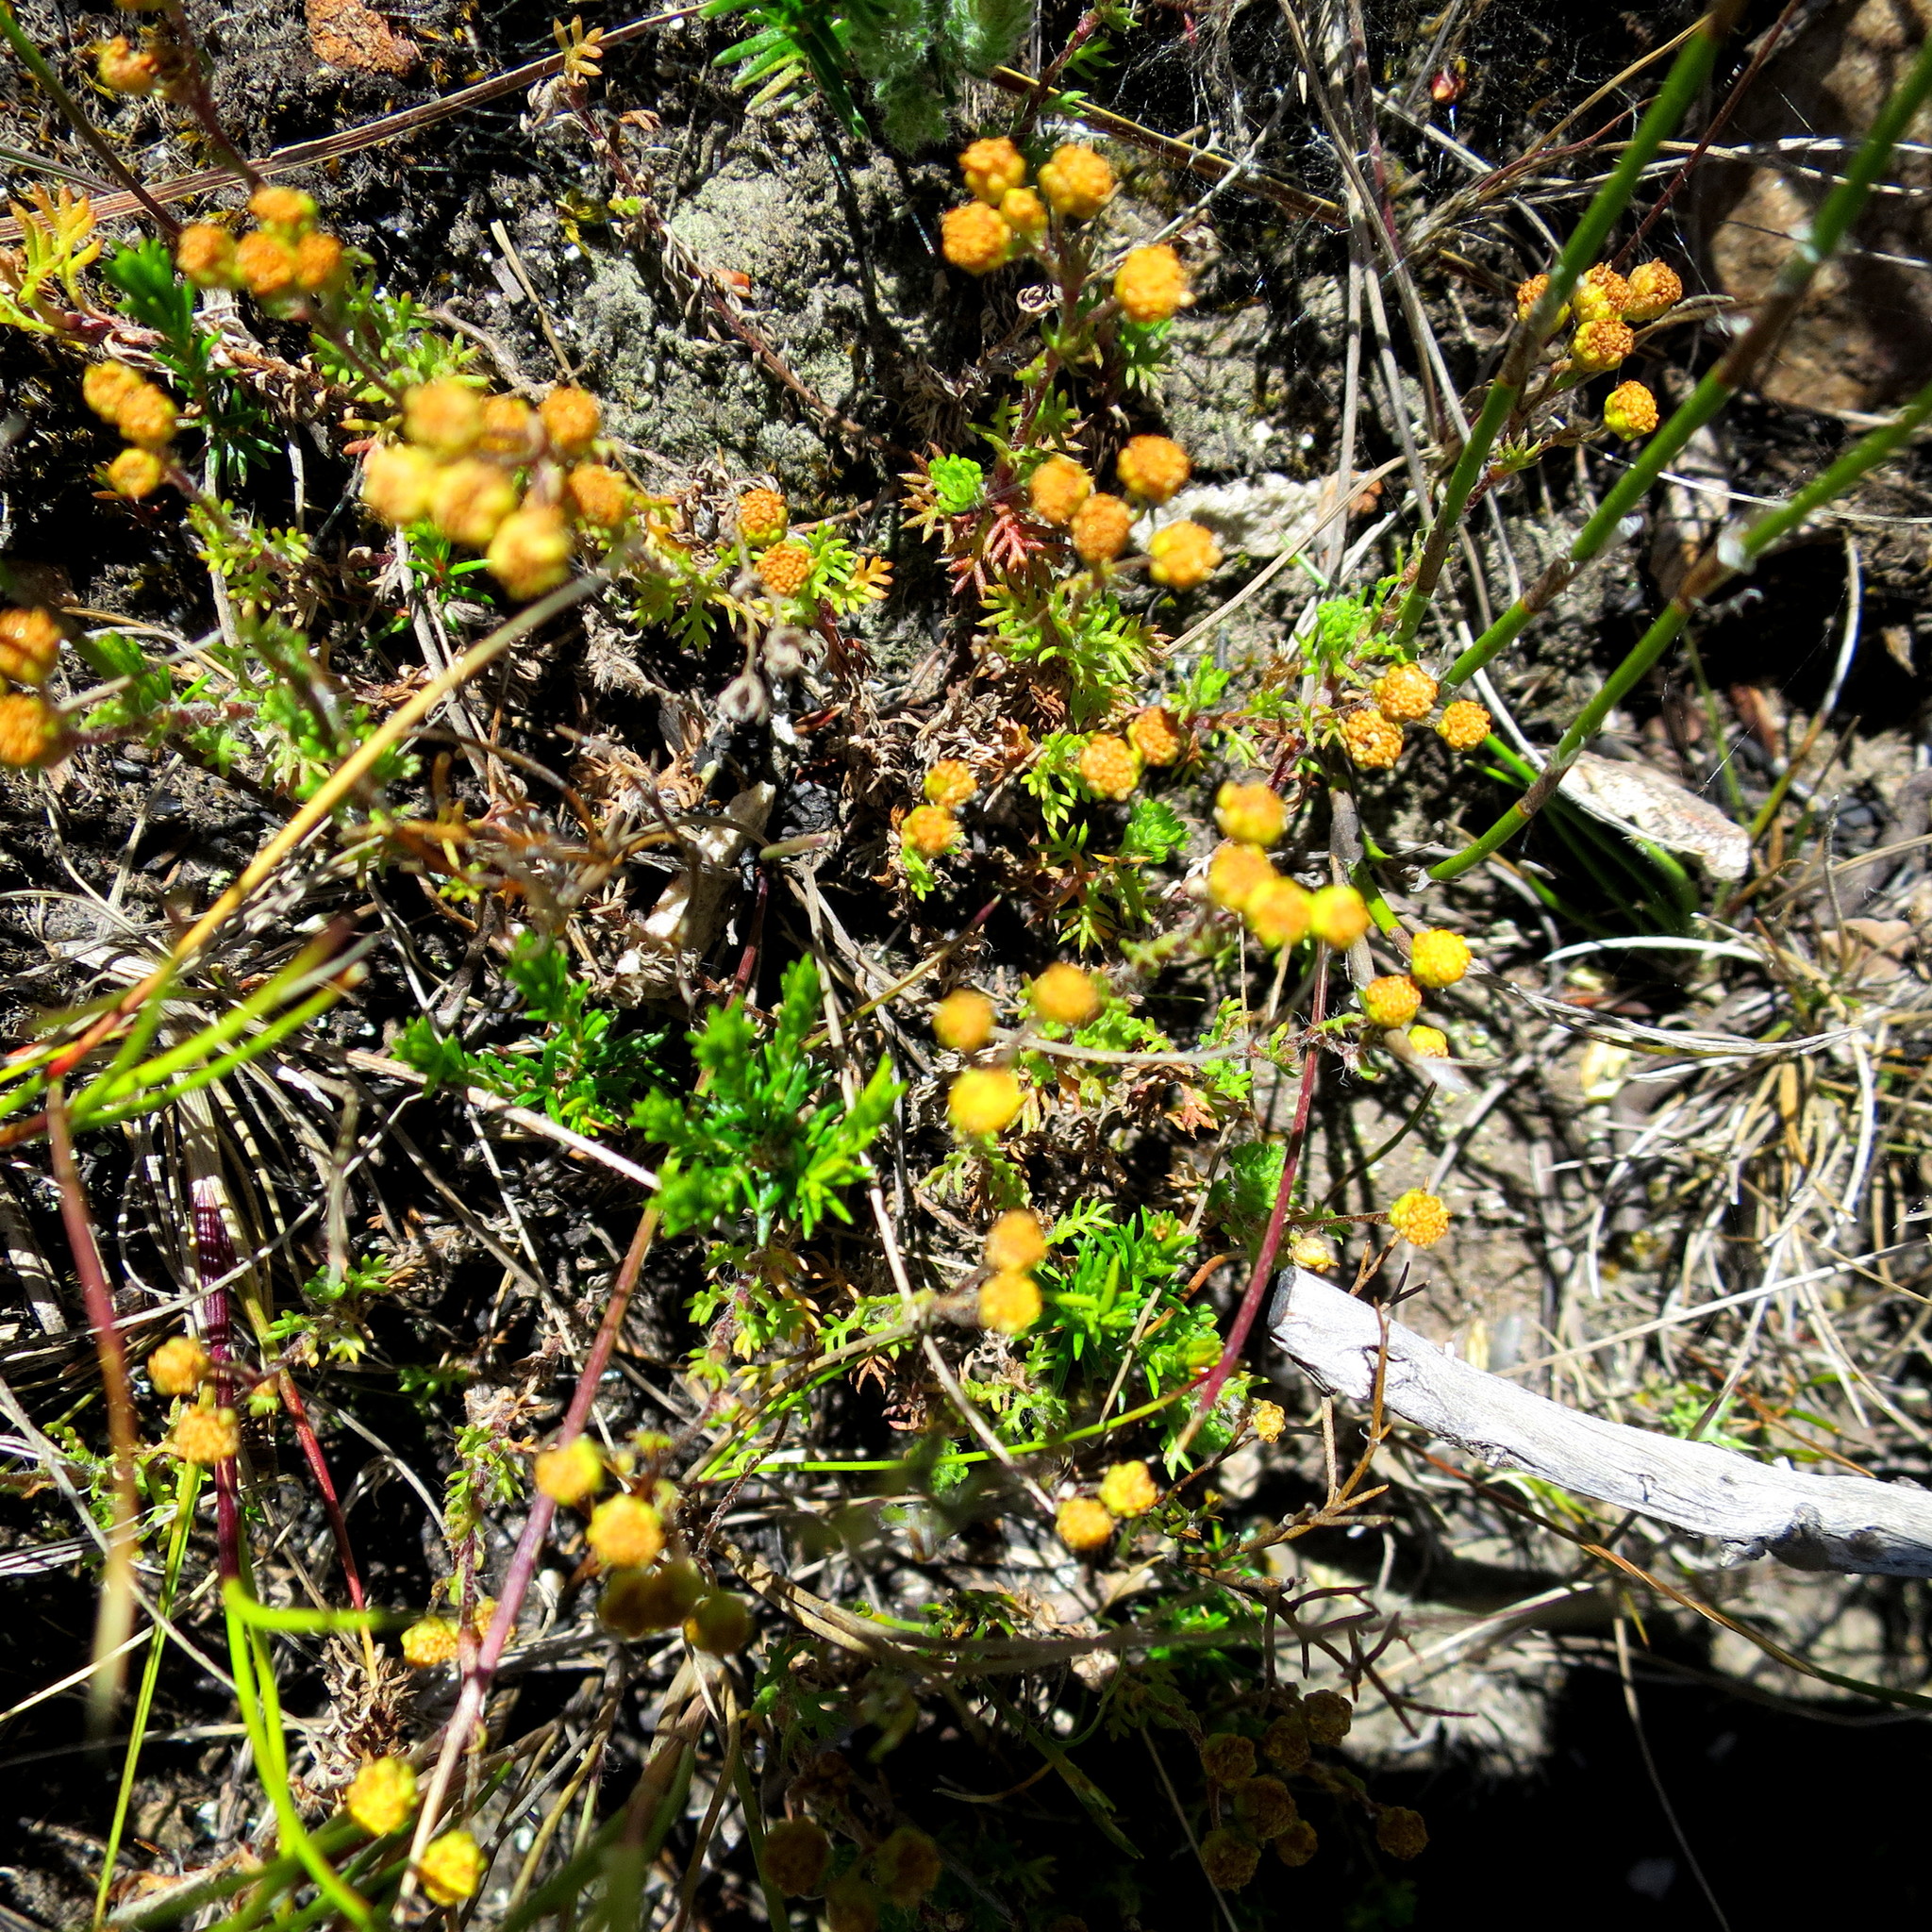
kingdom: Plantae
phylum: Tracheophyta
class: Magnoliopsida
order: Asterales
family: Asteraceae
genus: Hippia
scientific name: Hippia pilosa
